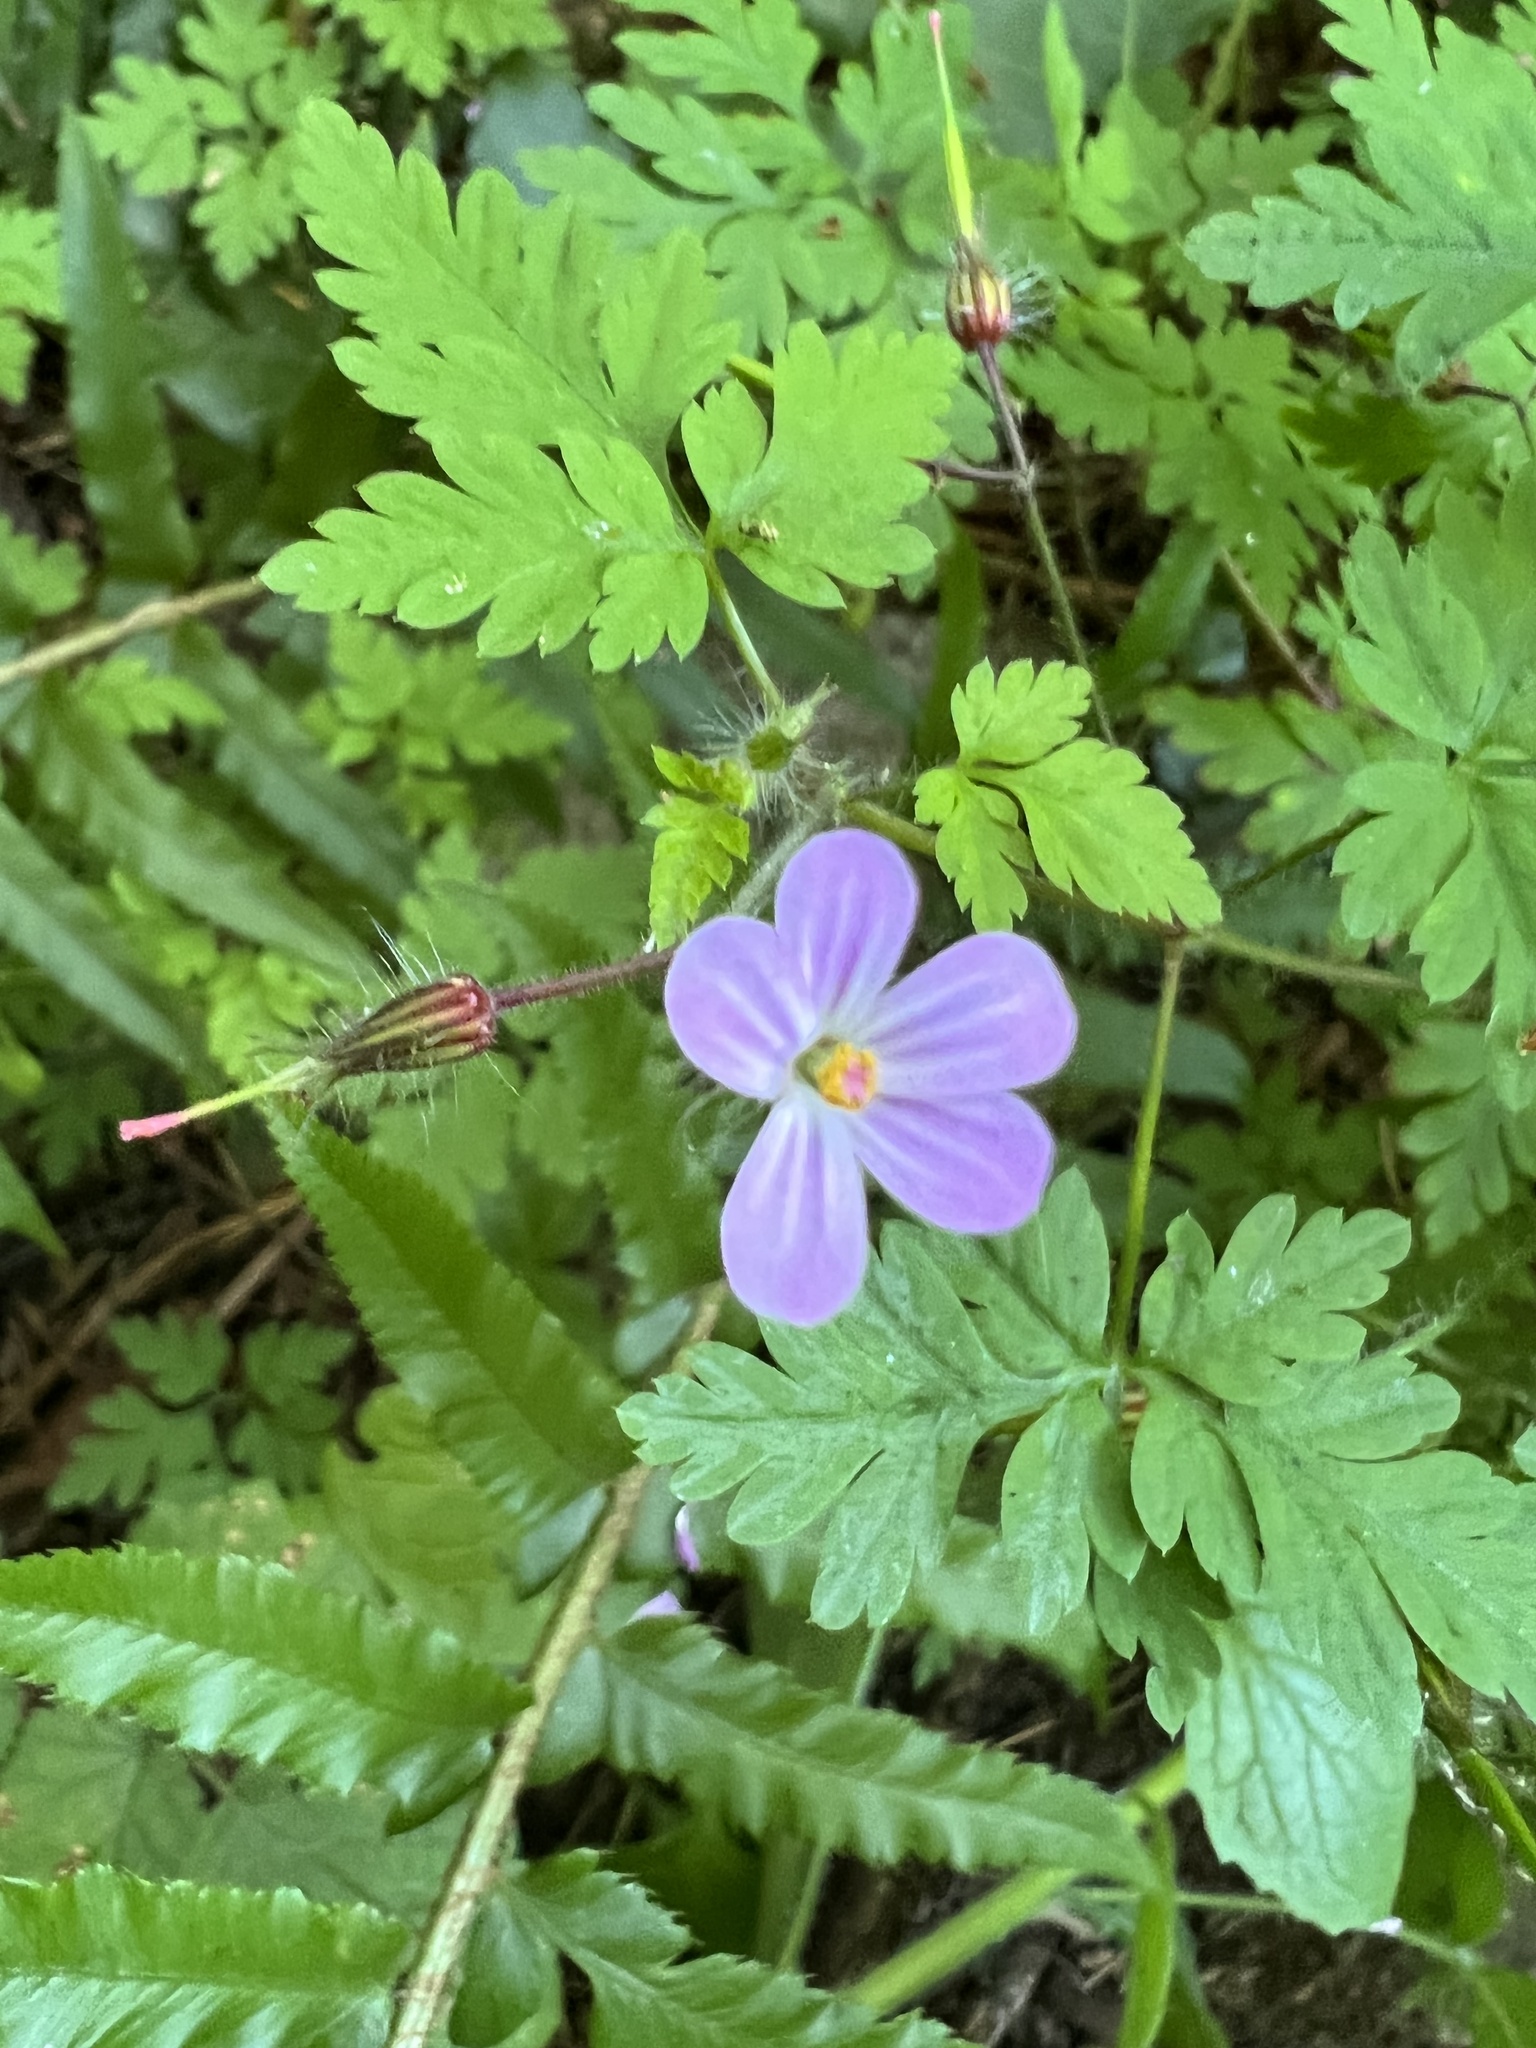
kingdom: Plantae
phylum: Tracheophyta
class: Magnoliopsida
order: Geraniales
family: Geraniaceae
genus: Geranium
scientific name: Geranium robertianum
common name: Herb-robert
